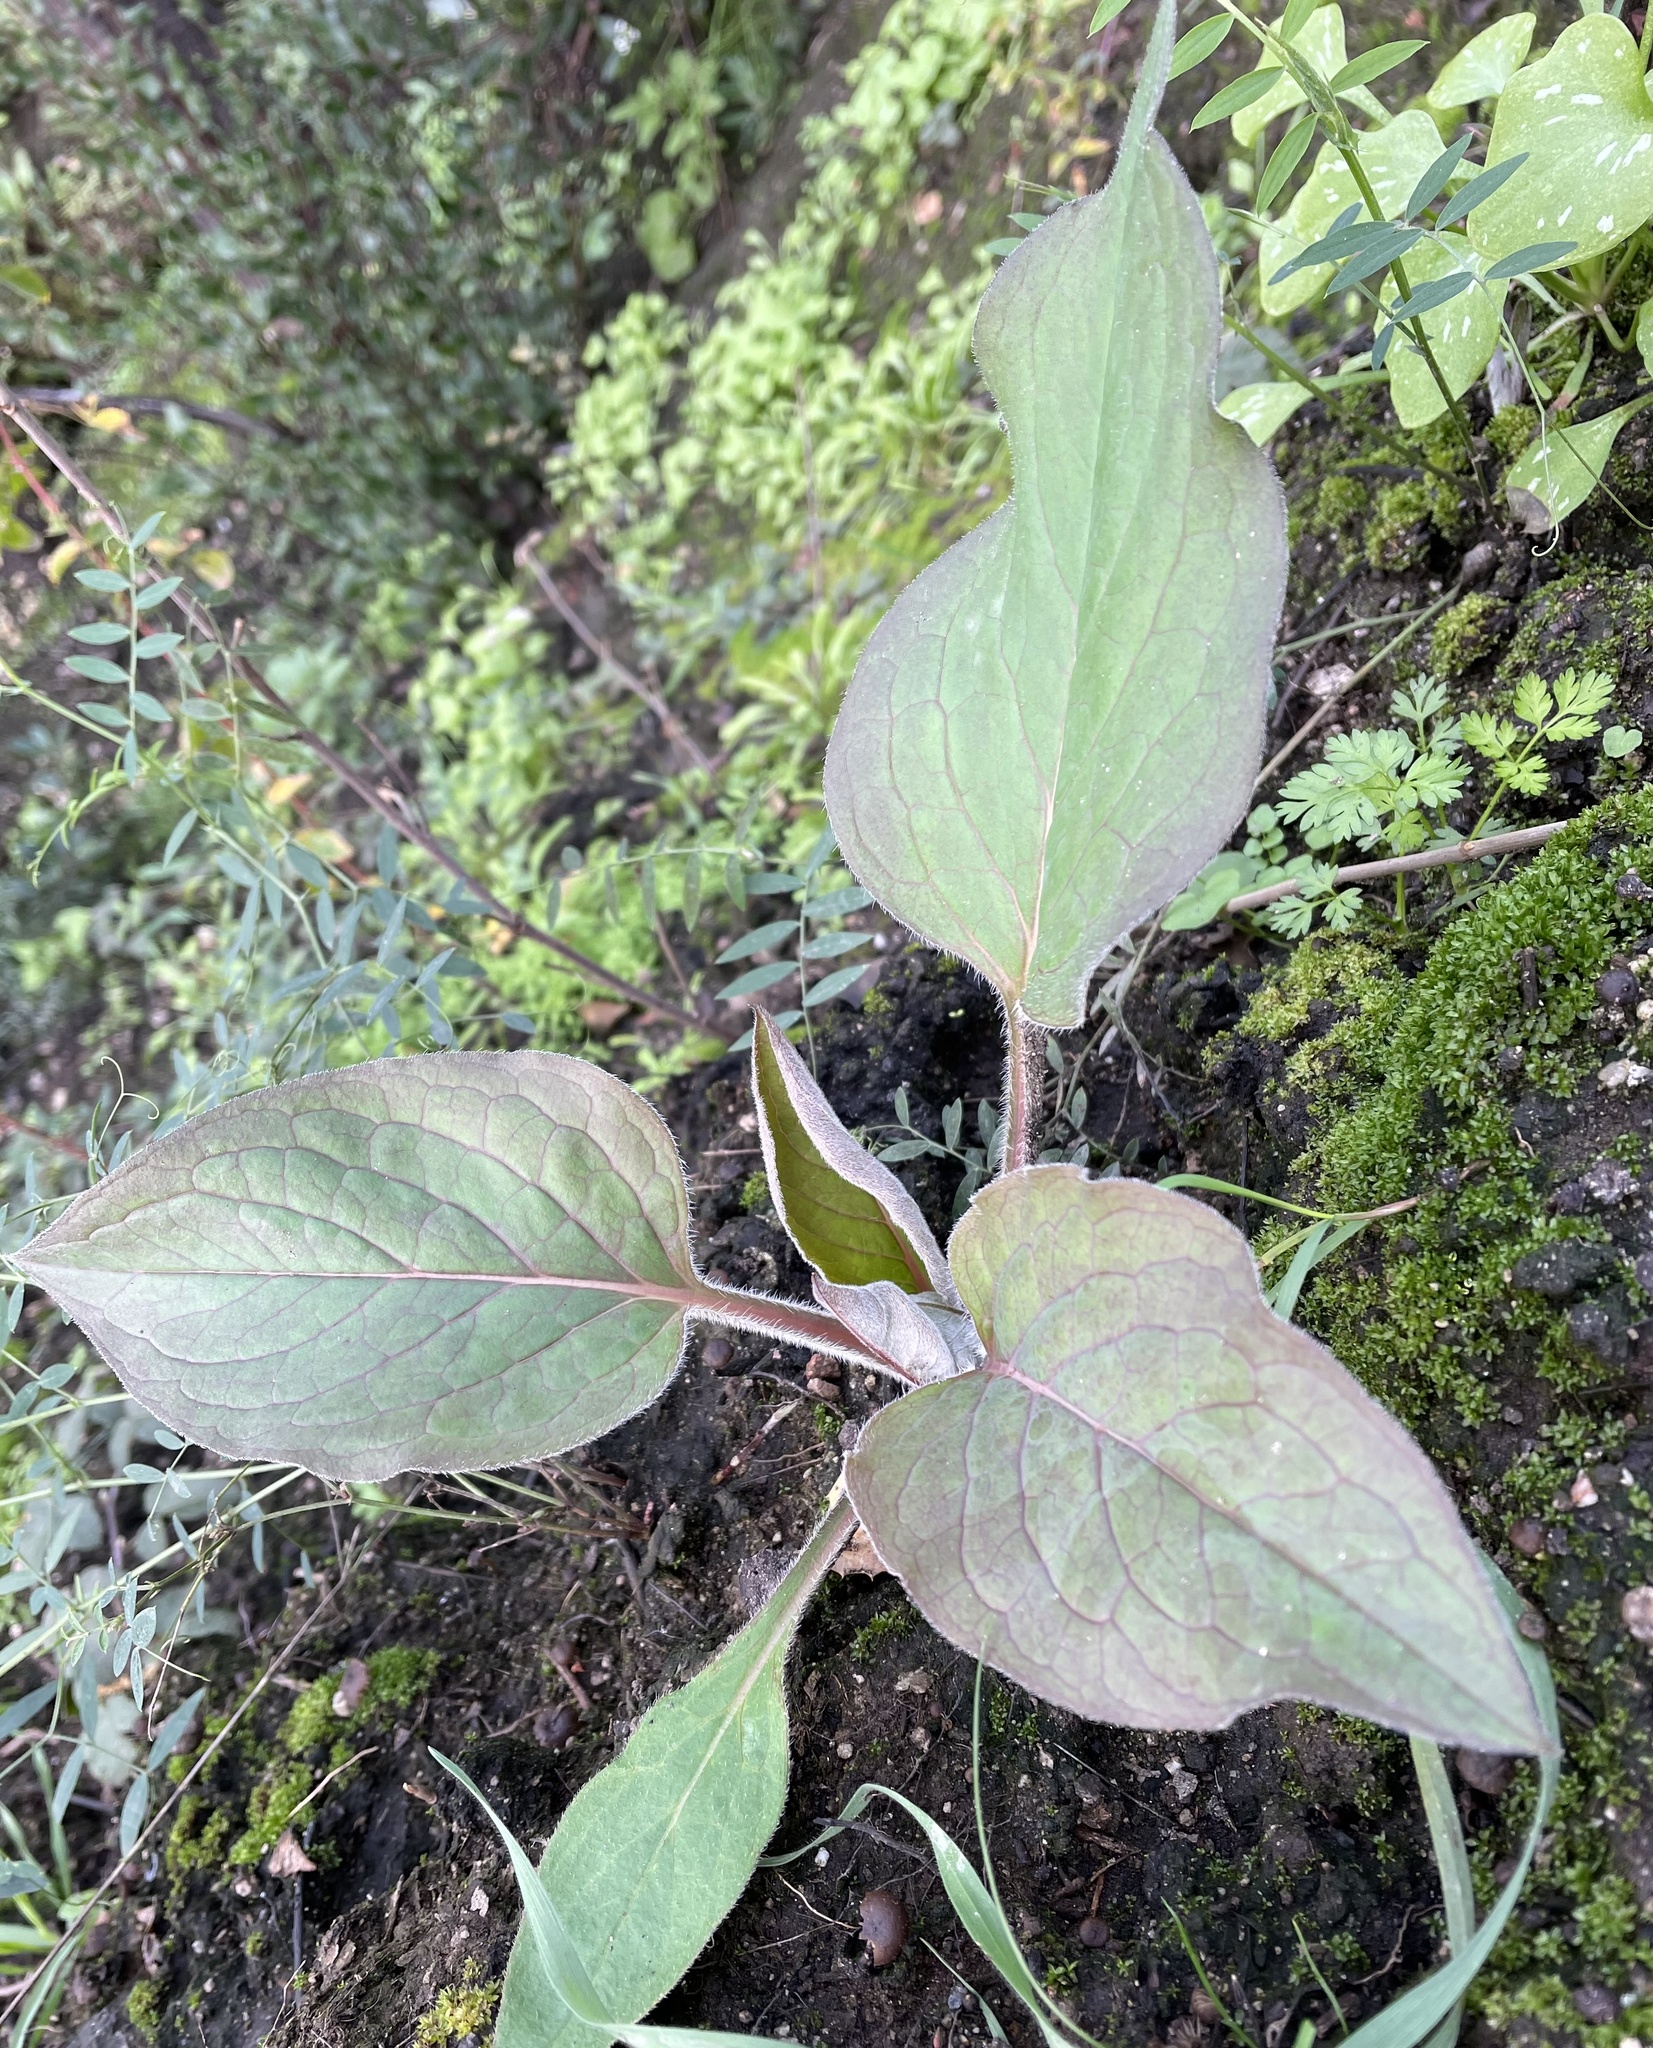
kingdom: Plantae
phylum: Tracheophyta
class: Magnoliopsida
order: Boraginales
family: Boraginaceae
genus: Adelinia
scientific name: Adelinia grande
